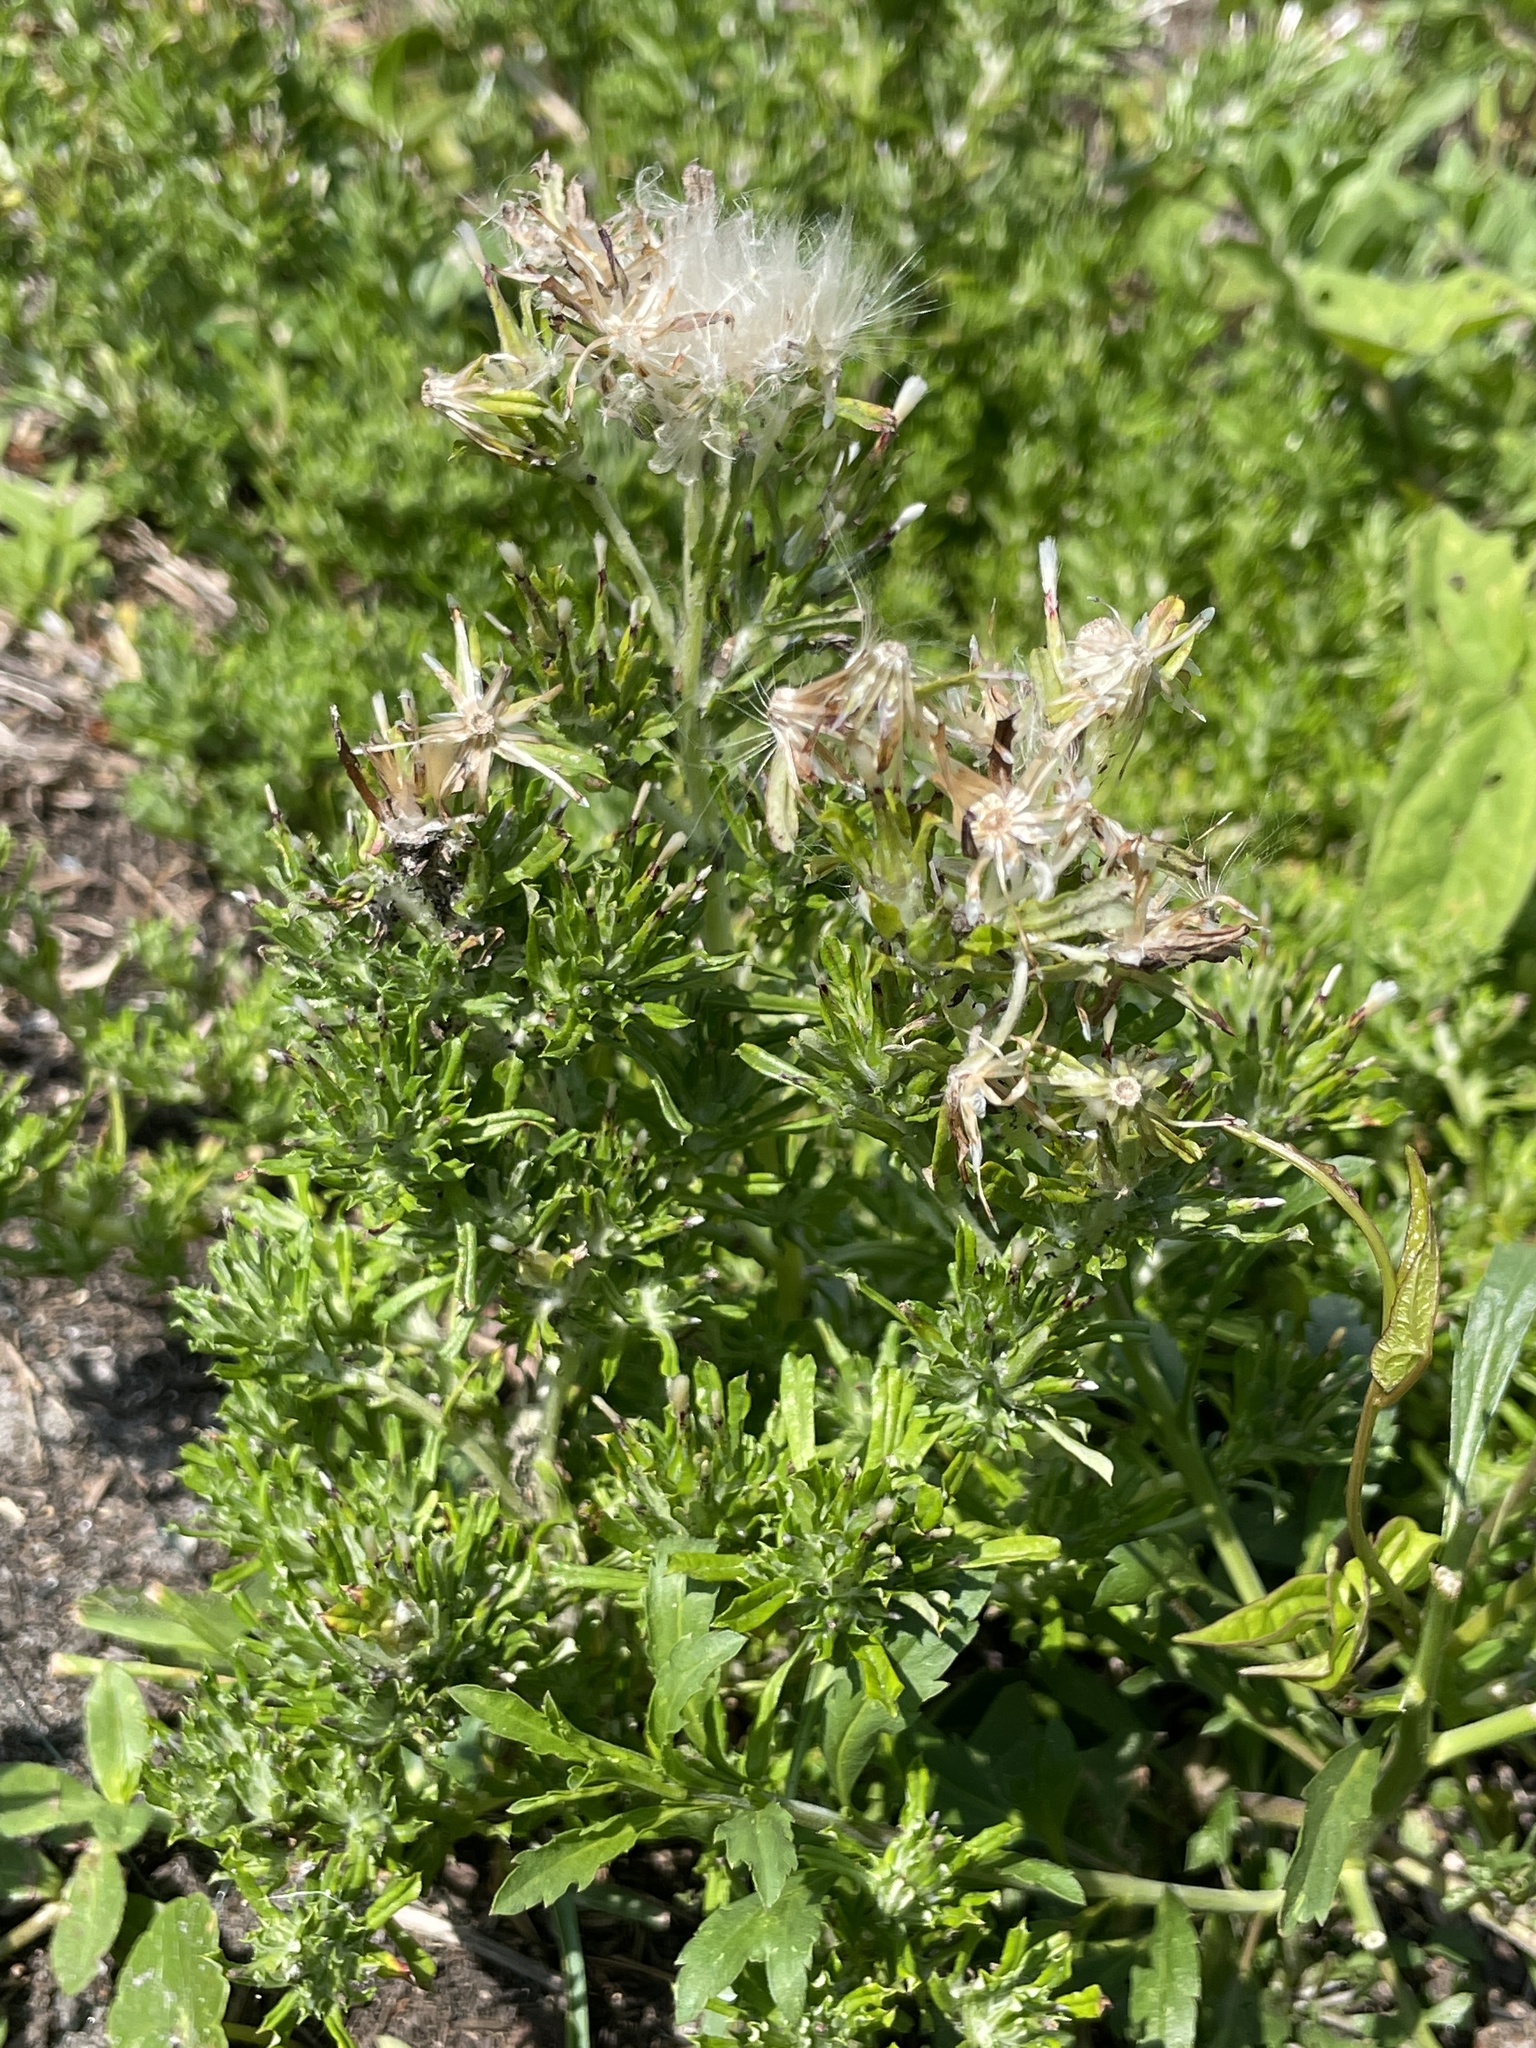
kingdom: Plantae
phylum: Tracheophyta
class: Magnoliopsida
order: Asterales
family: Asteraceae
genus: Facelis
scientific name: Facelis retusa
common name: Annual trampweed
